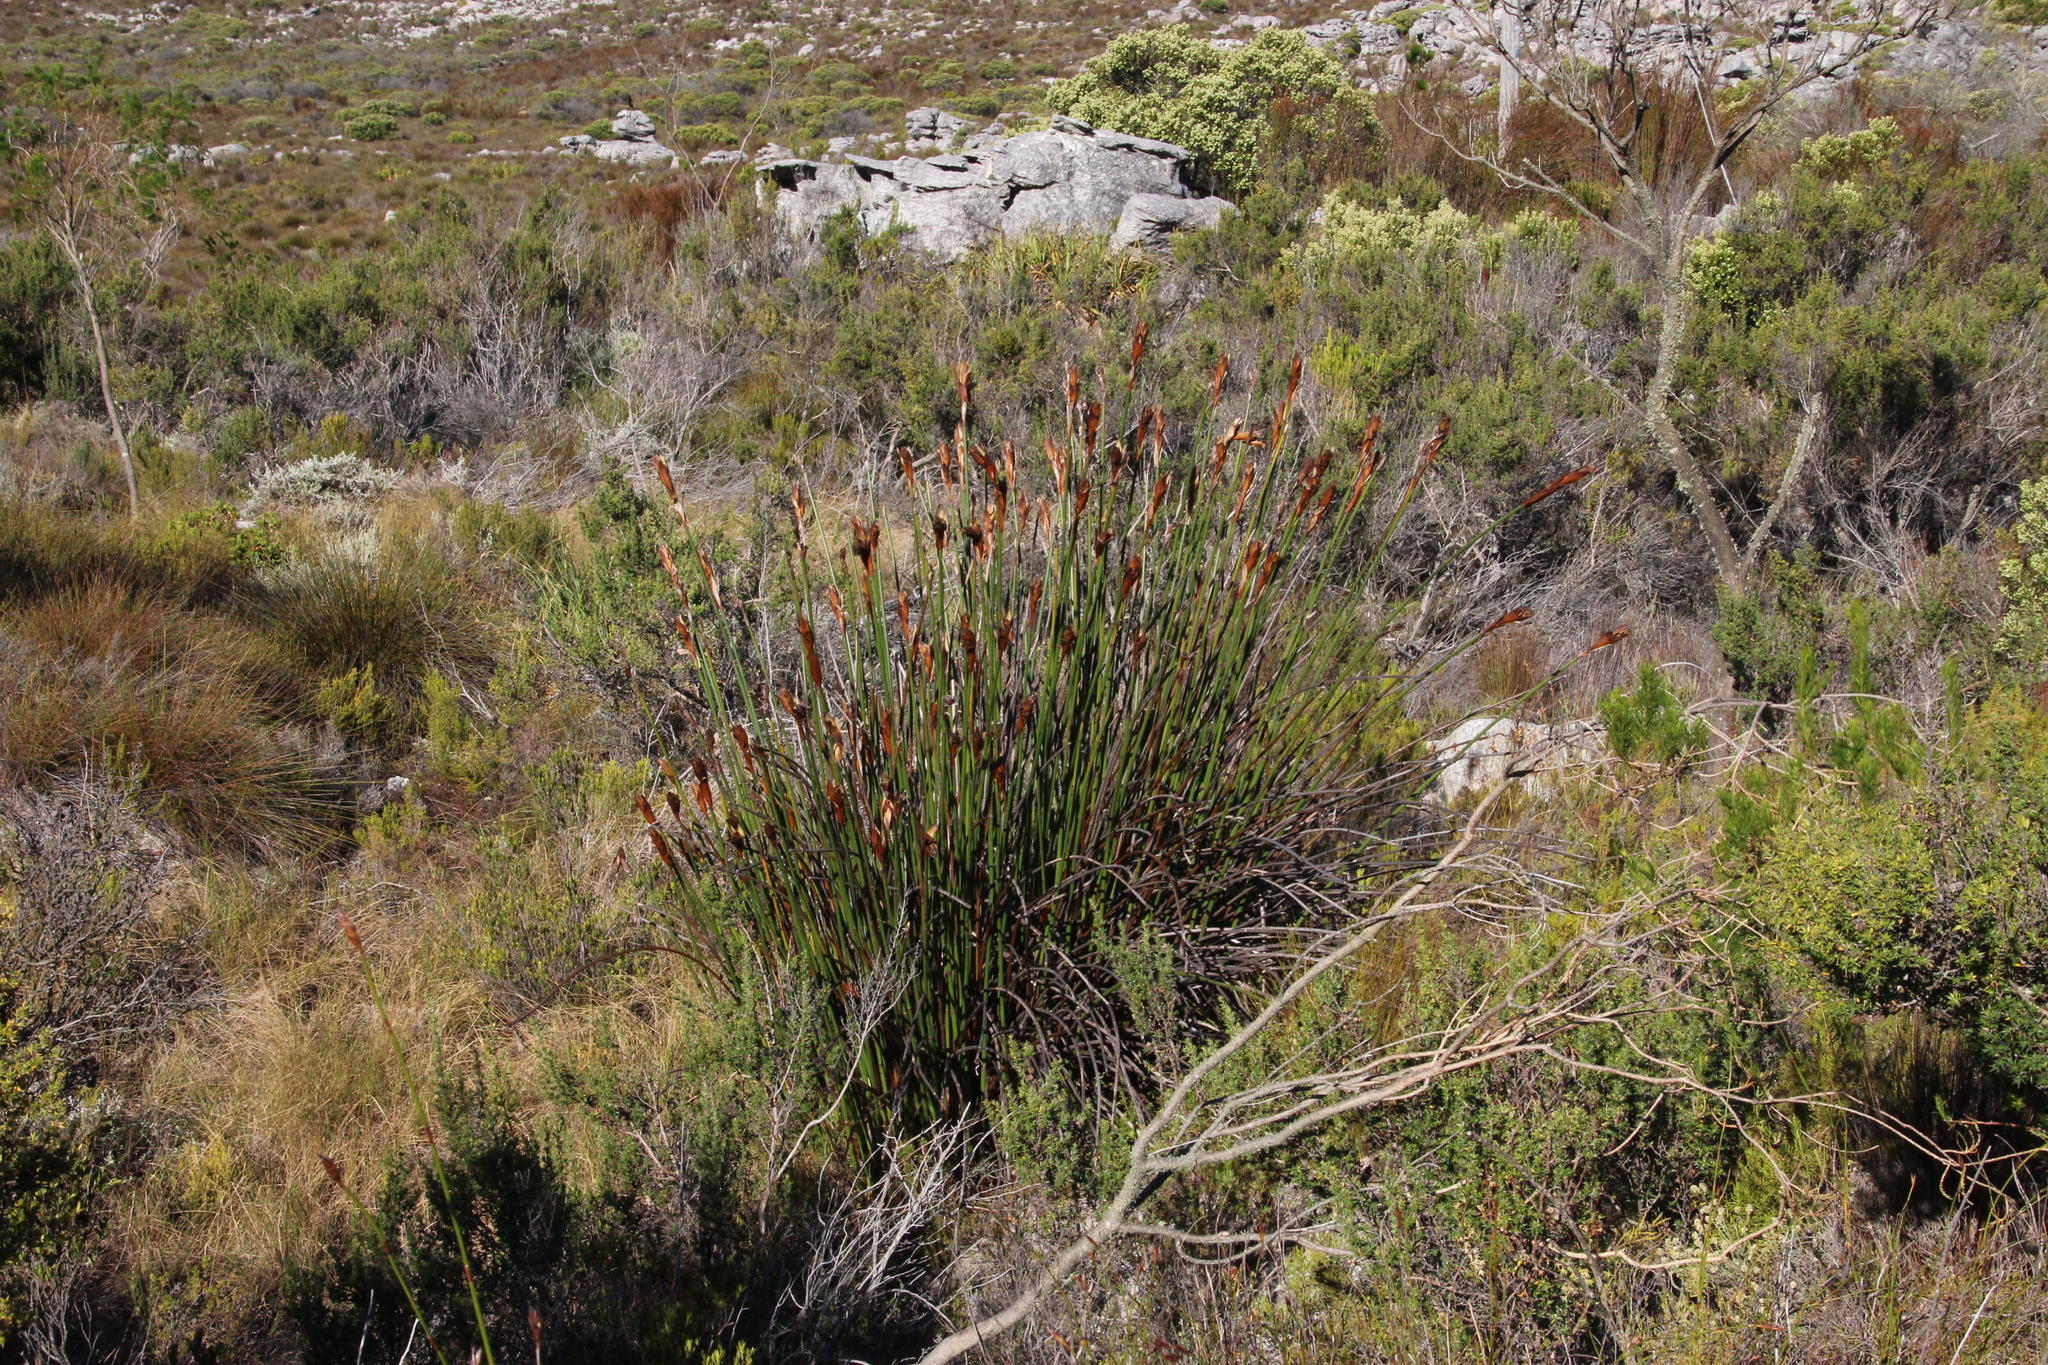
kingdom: Plantae
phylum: Tracheophyta
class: Liliopsida
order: Poales
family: Restionaceae
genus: Elegia
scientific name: Elegia mucronata
